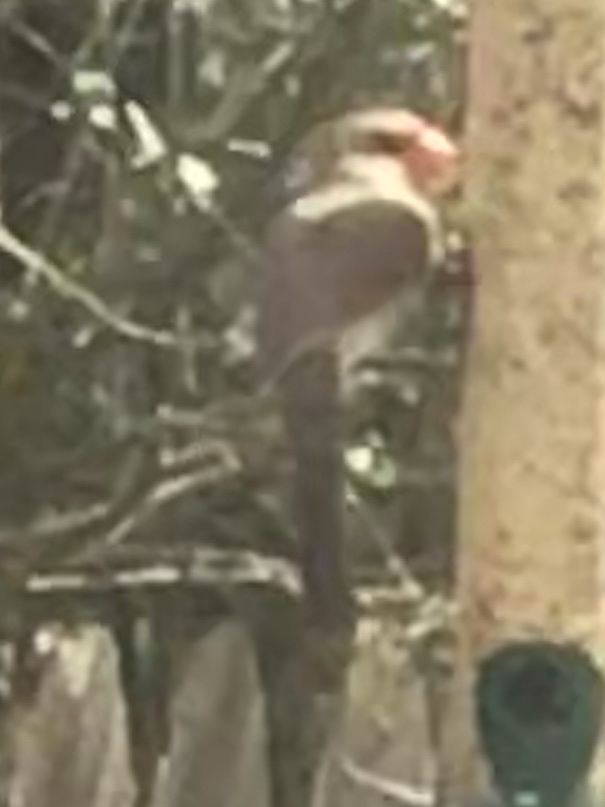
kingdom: Animalia
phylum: Chordata
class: Aves
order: Passeriformes
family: Cardinalidae
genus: Cardinalis
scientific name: Cardinalis cardinalis
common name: Northern cardinal
